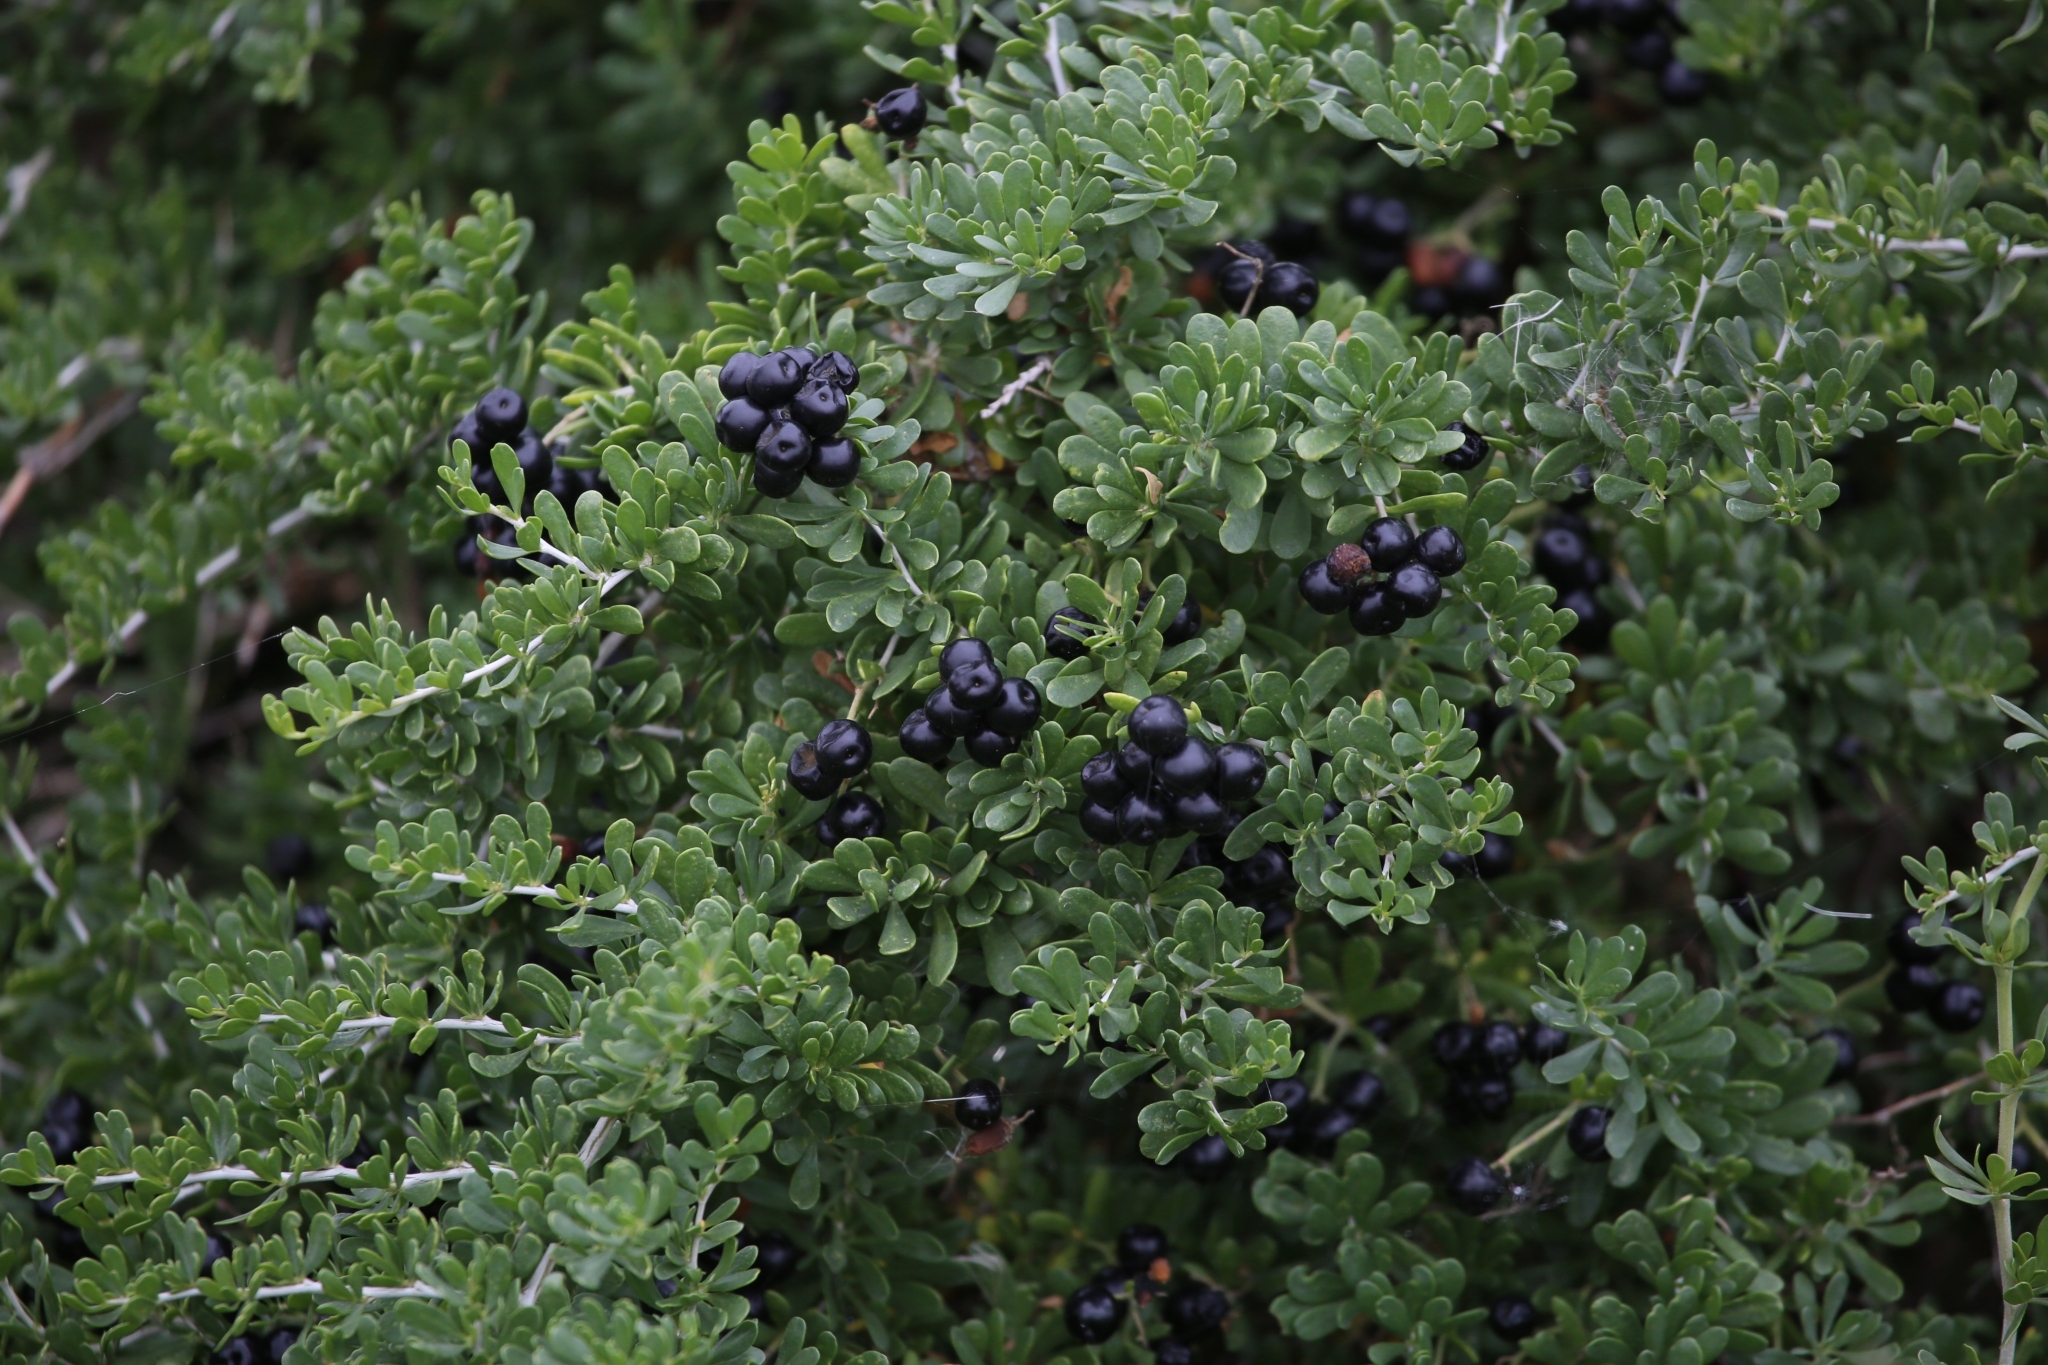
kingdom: Plantae
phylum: Tracheophyta
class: Magnoliopsida
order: Sapindales
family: Nitrariaceae
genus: Nitraria
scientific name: Nitraria sibirica
